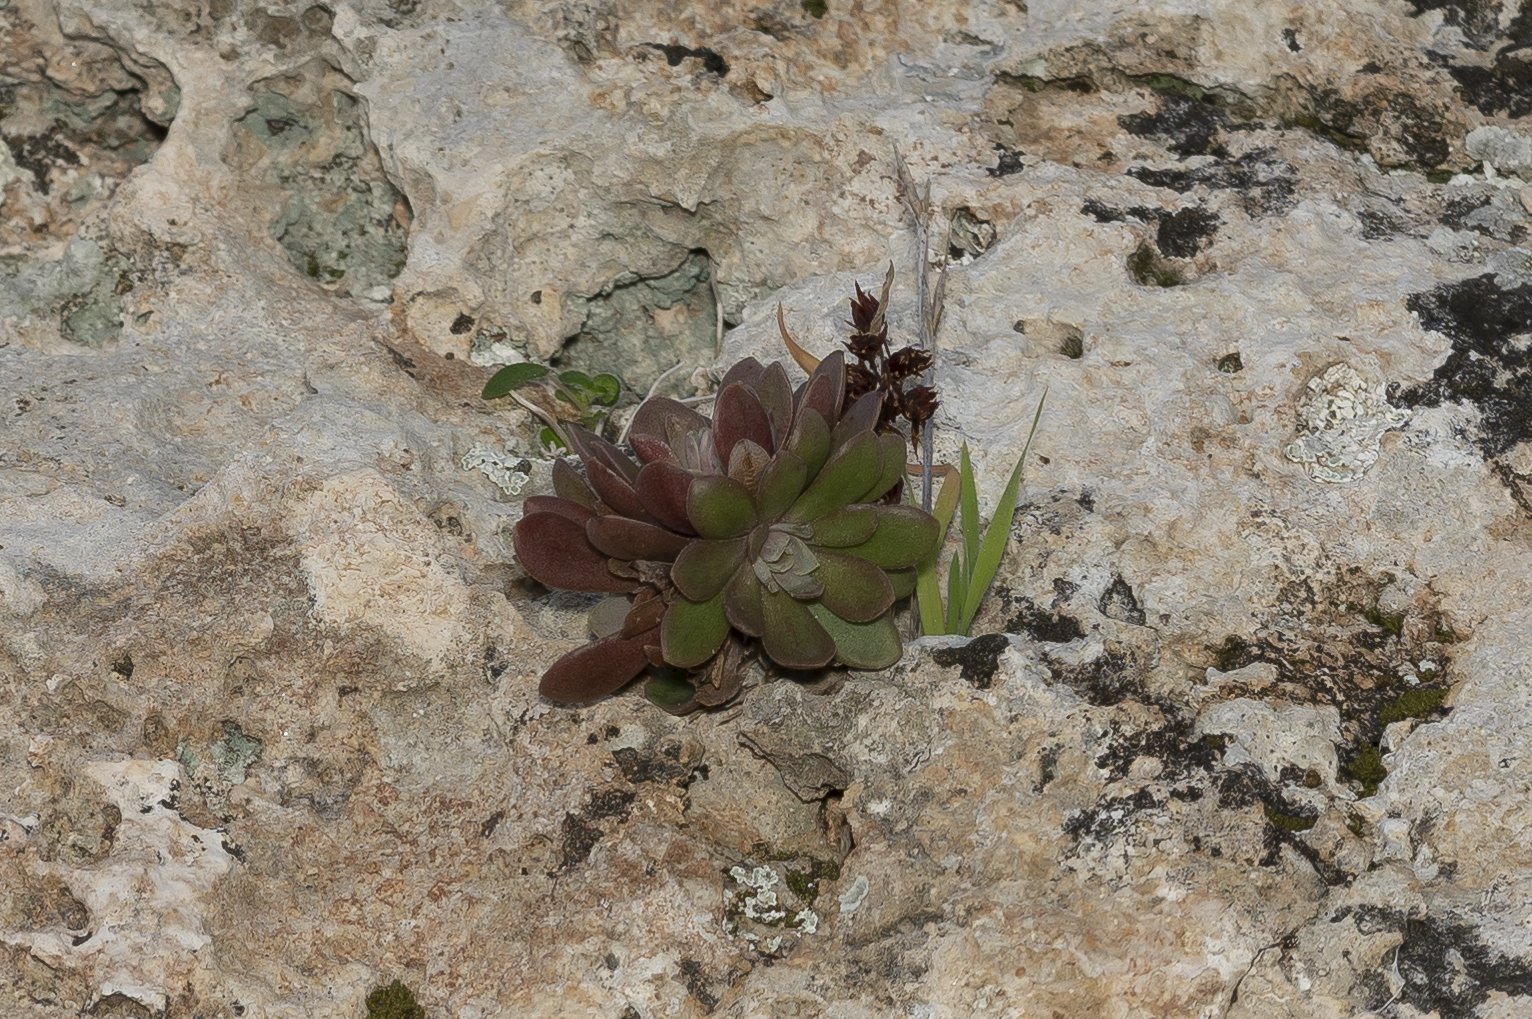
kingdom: Plantae
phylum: Tracheophyta
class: Magnoliopsida
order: Saxifragales
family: Crassulaceae
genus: Rosularia
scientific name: Rosularia serrata
